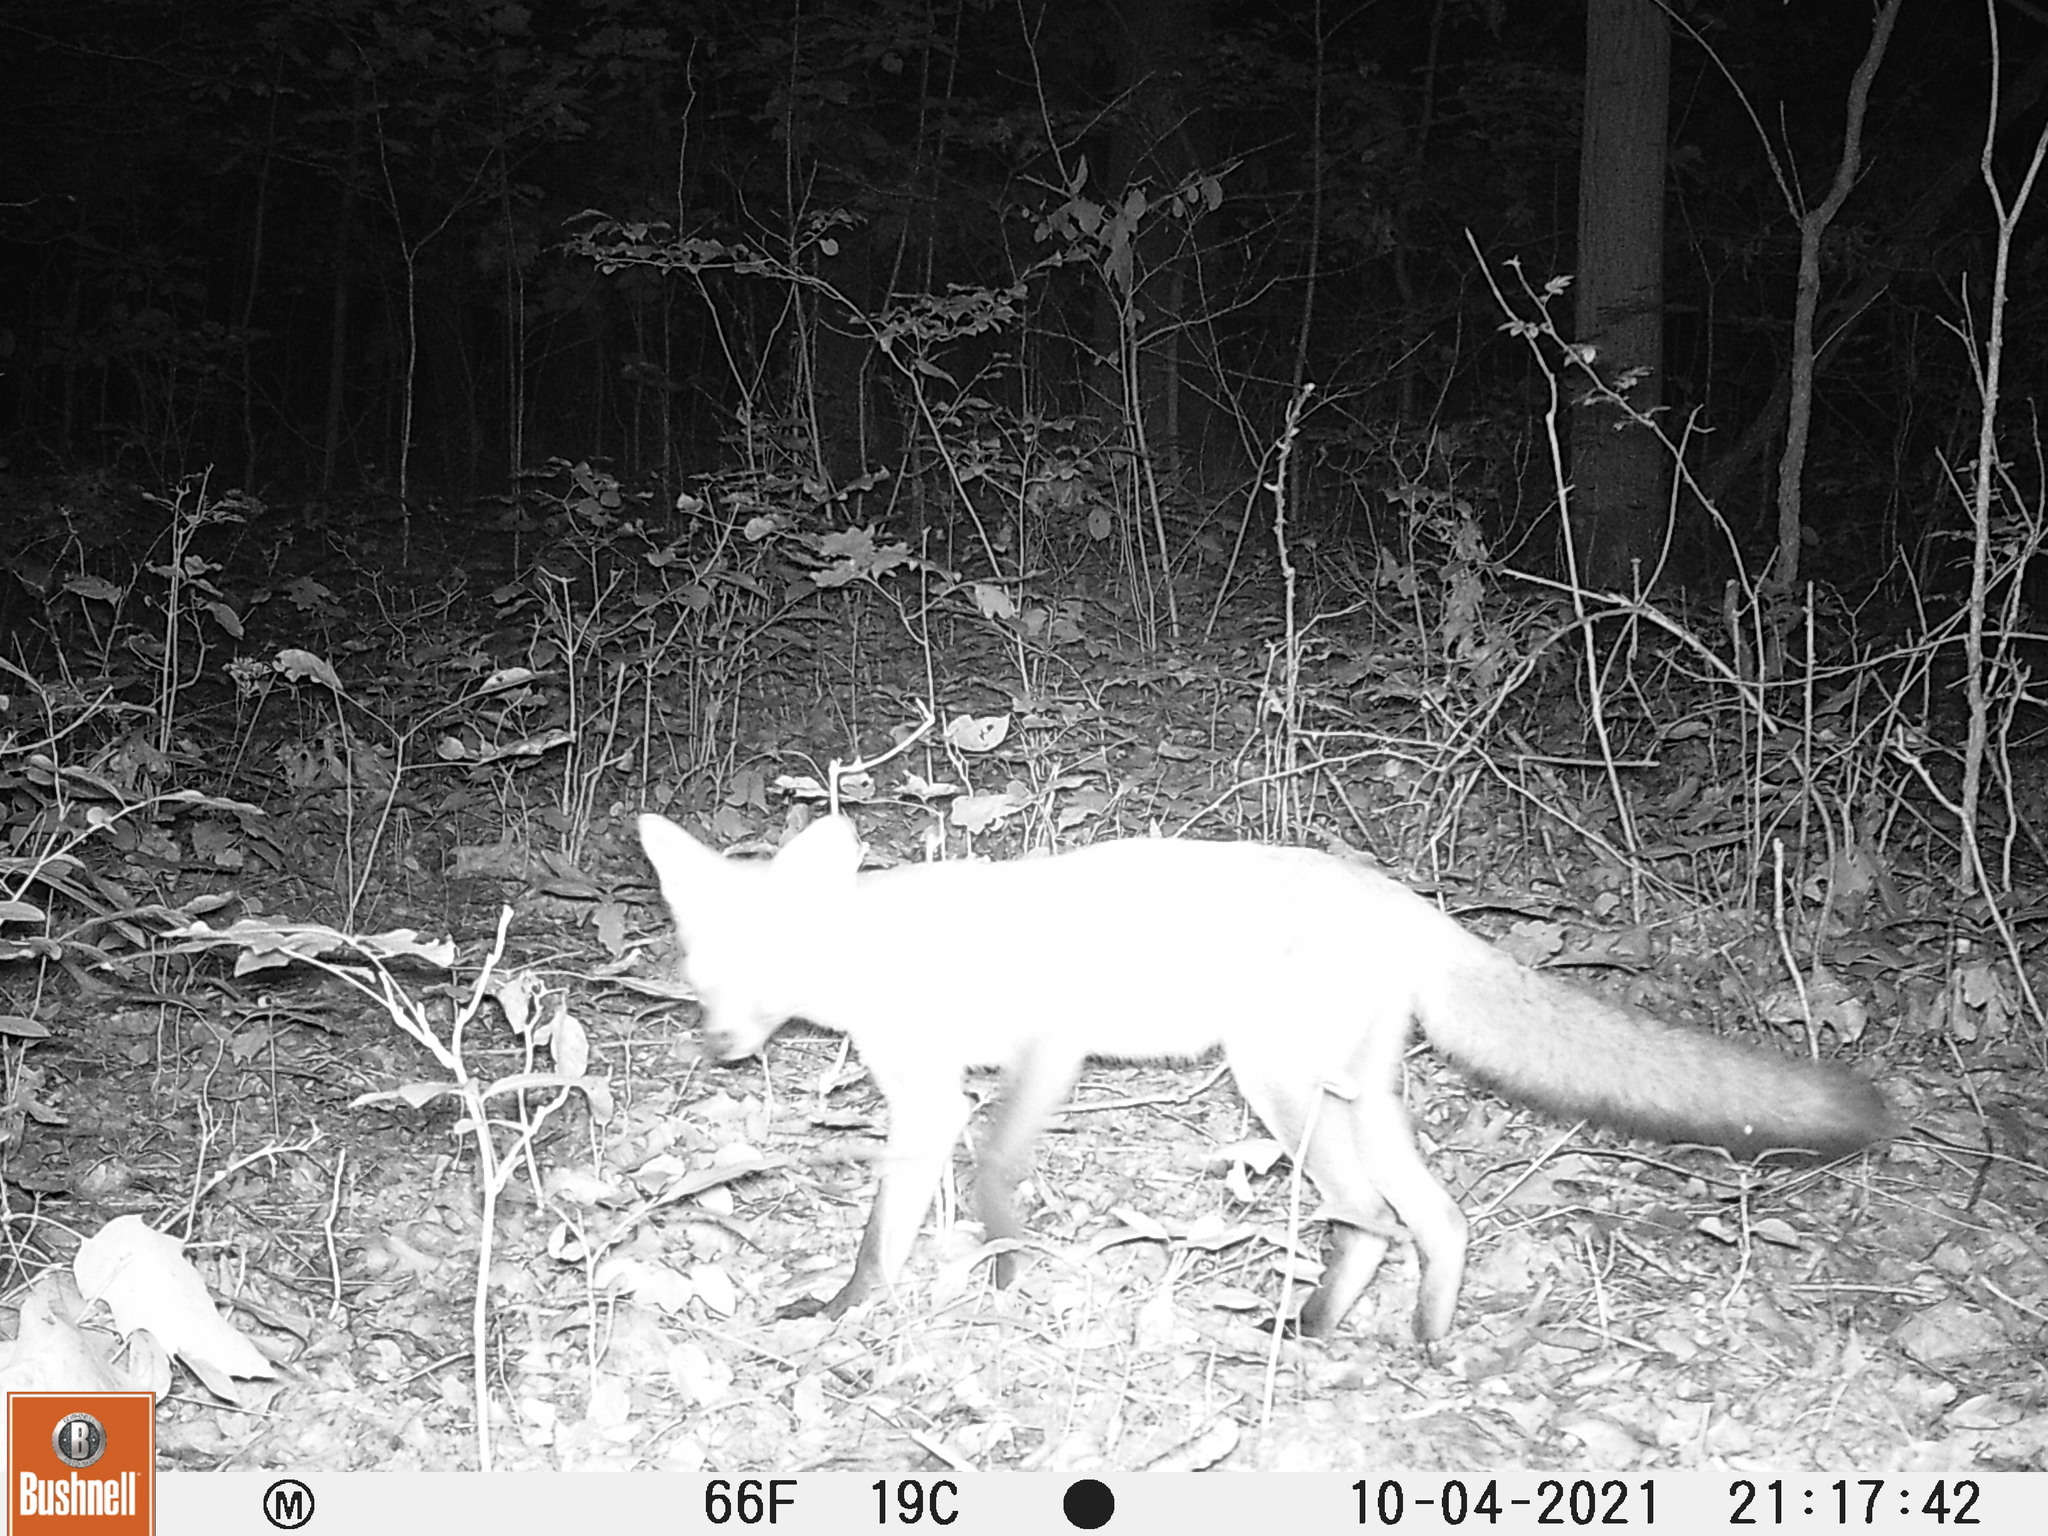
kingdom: Animalia
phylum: Chordata
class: Mammalia
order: Carnivora
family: Canidae
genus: Vulpes
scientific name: Vulpes vulpes
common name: Red fox
